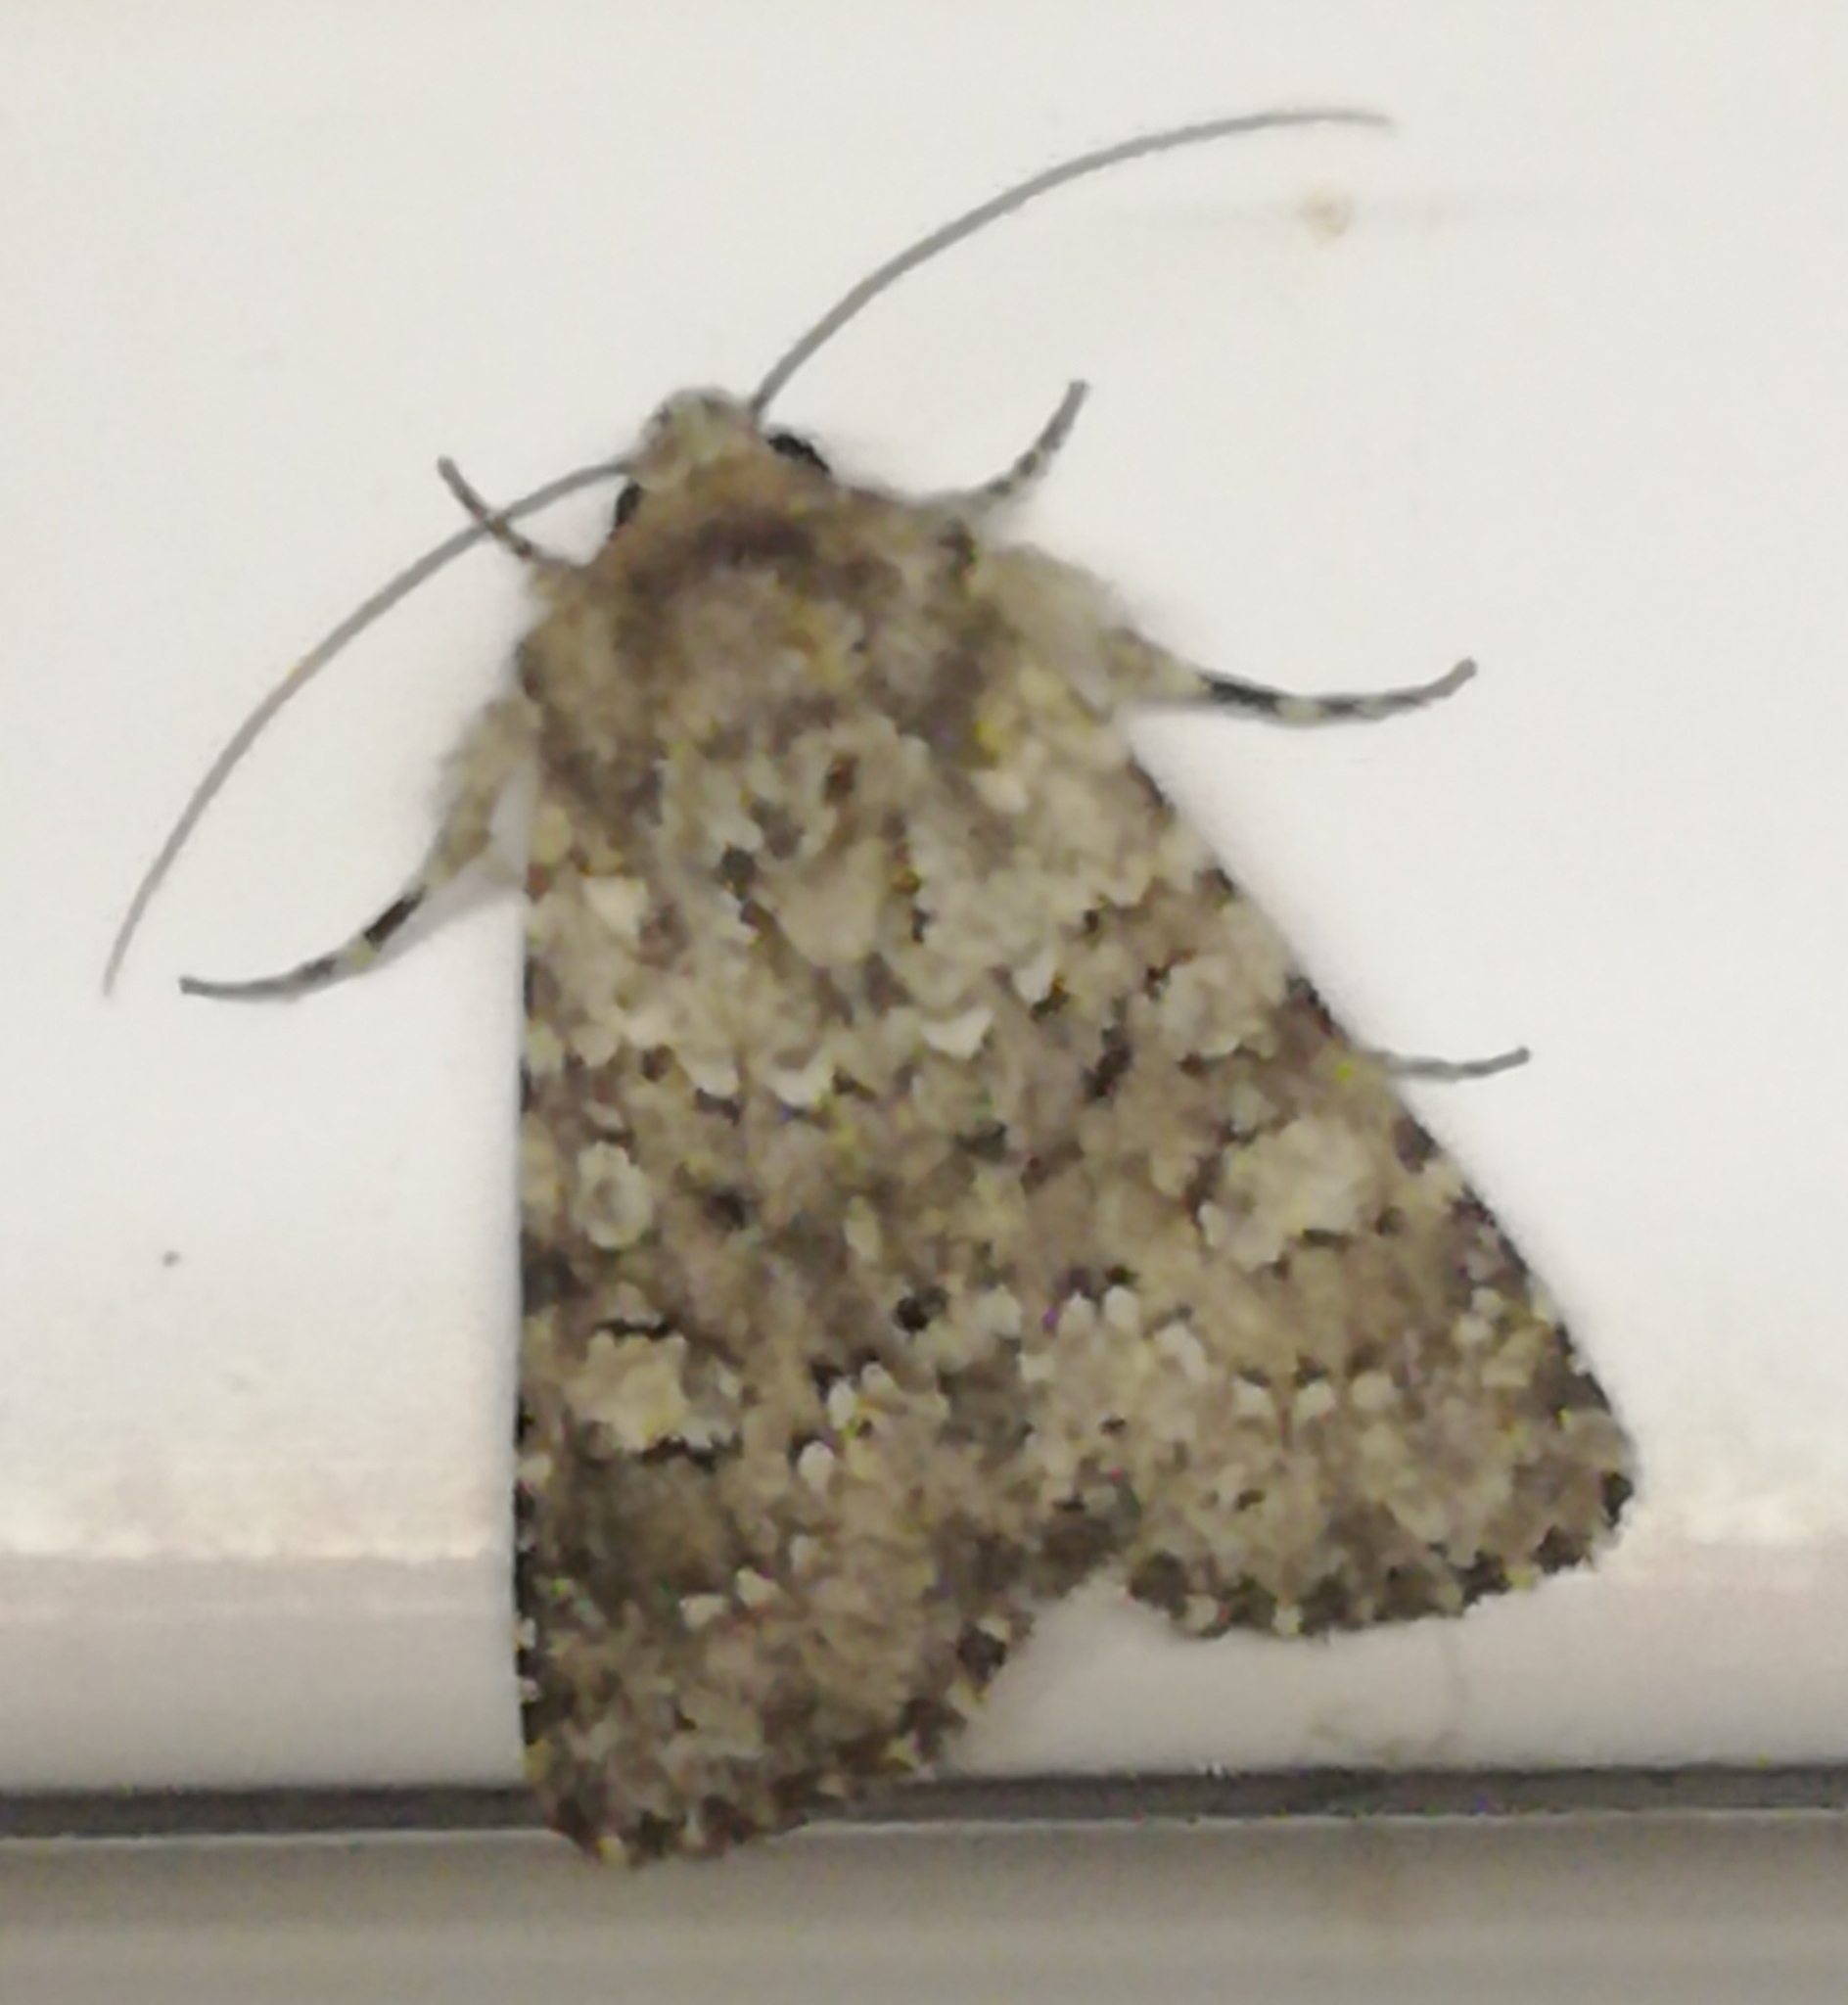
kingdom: Animalia
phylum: Arthropoda
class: Insecta
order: Lepidoptera
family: Noctuidae
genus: Hecatera
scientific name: Hecatera dysodea
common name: Small ranunculus
